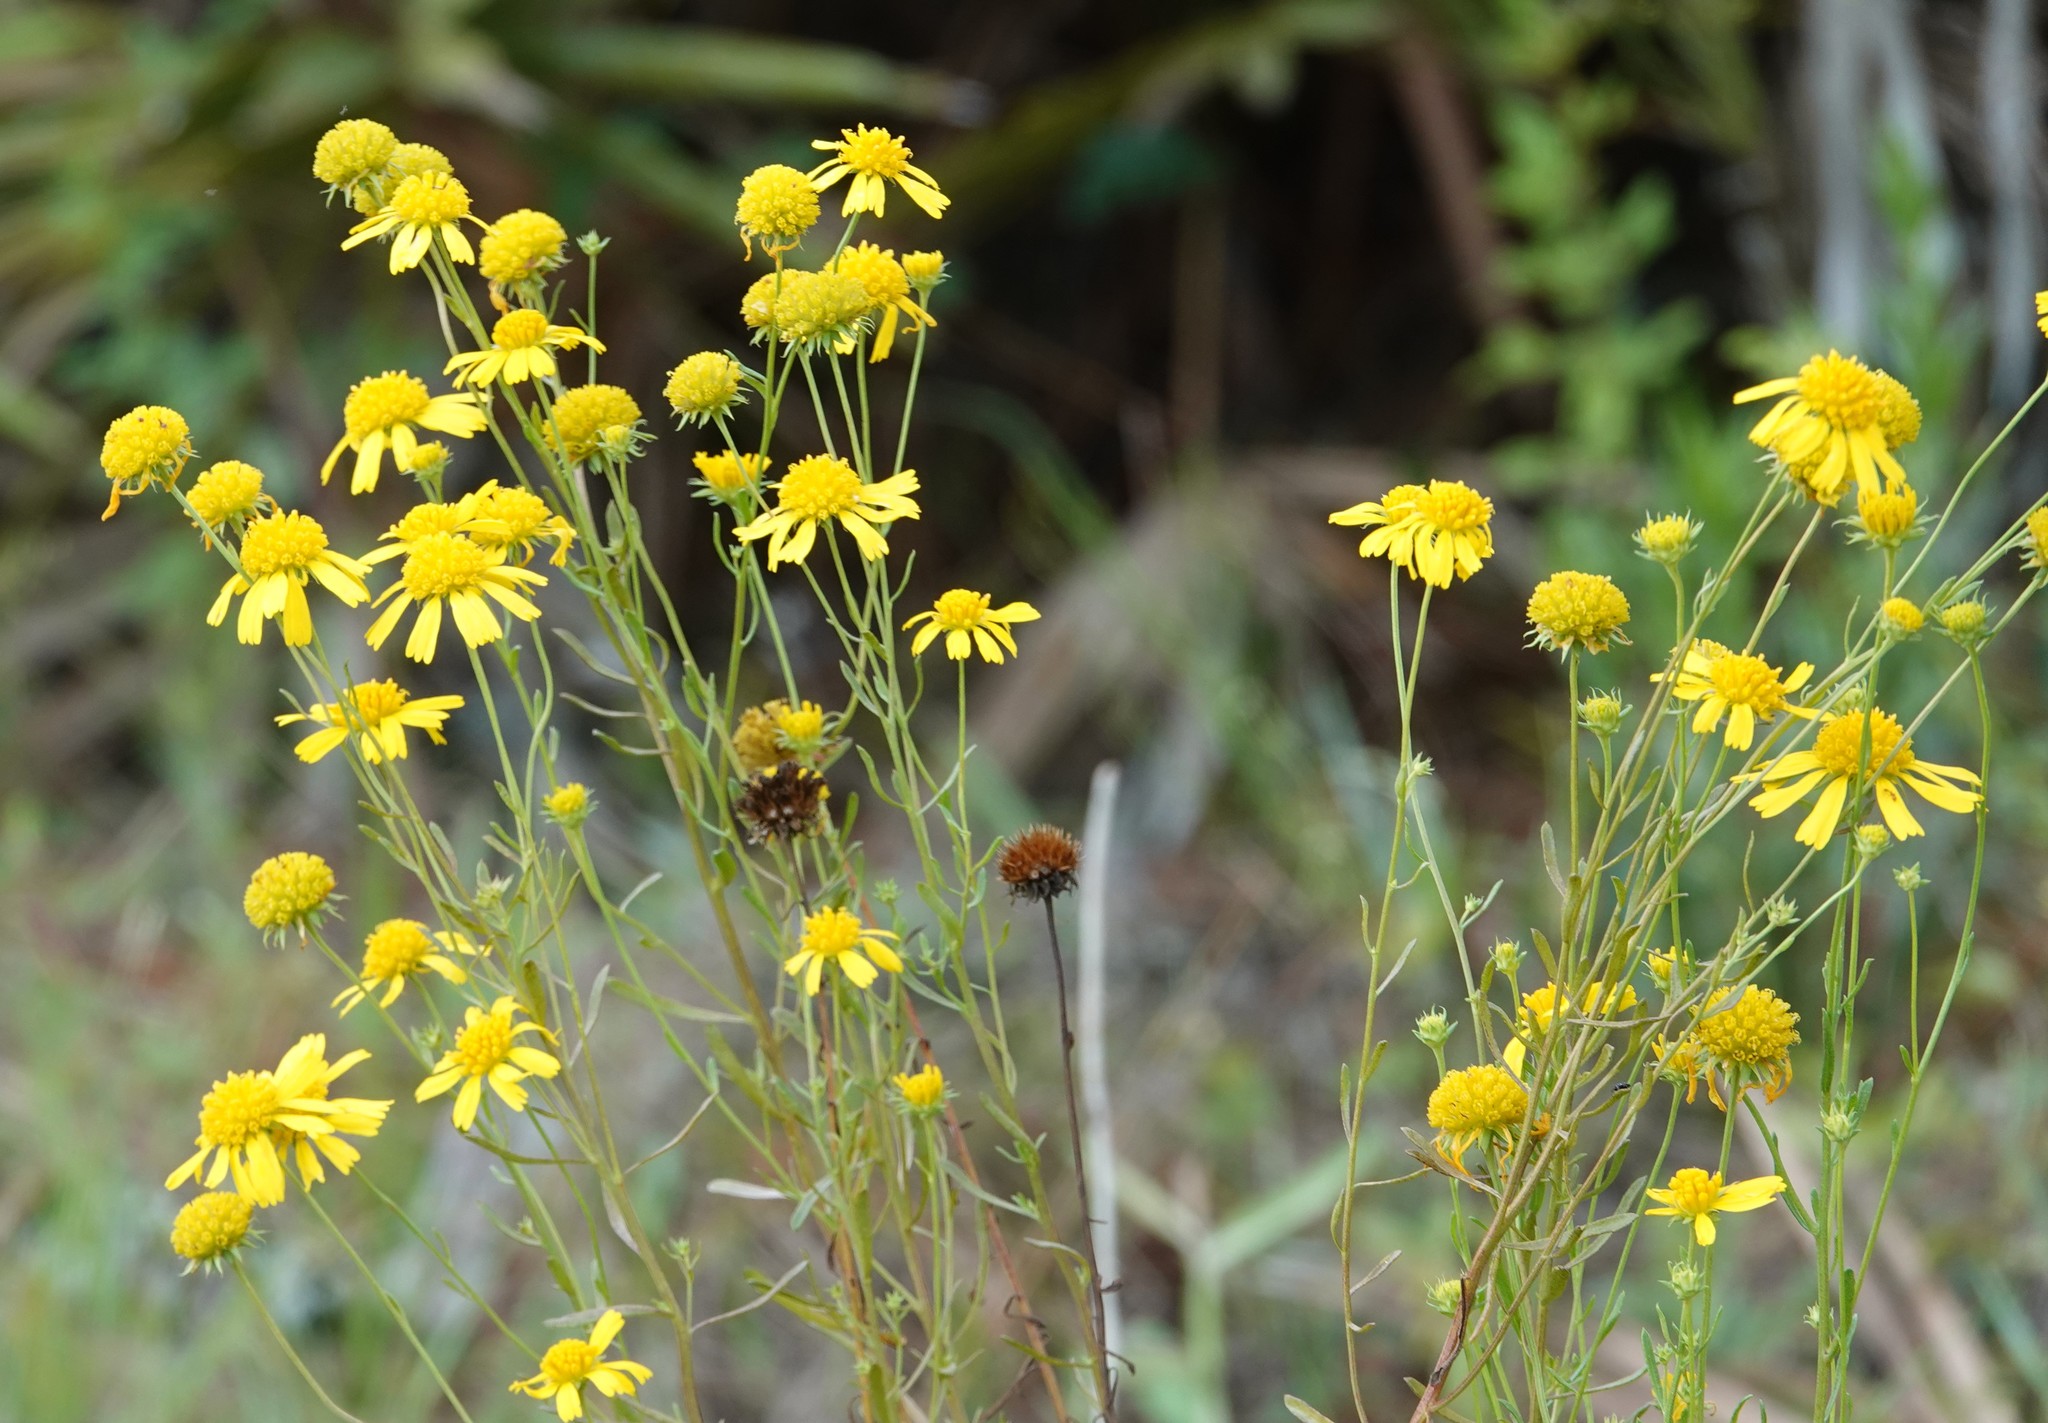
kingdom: Plantae
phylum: Tracheophyta
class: Magnoliopsida
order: Asterales
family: Asteraceae
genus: Balduina
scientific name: Balduina angustifolia
